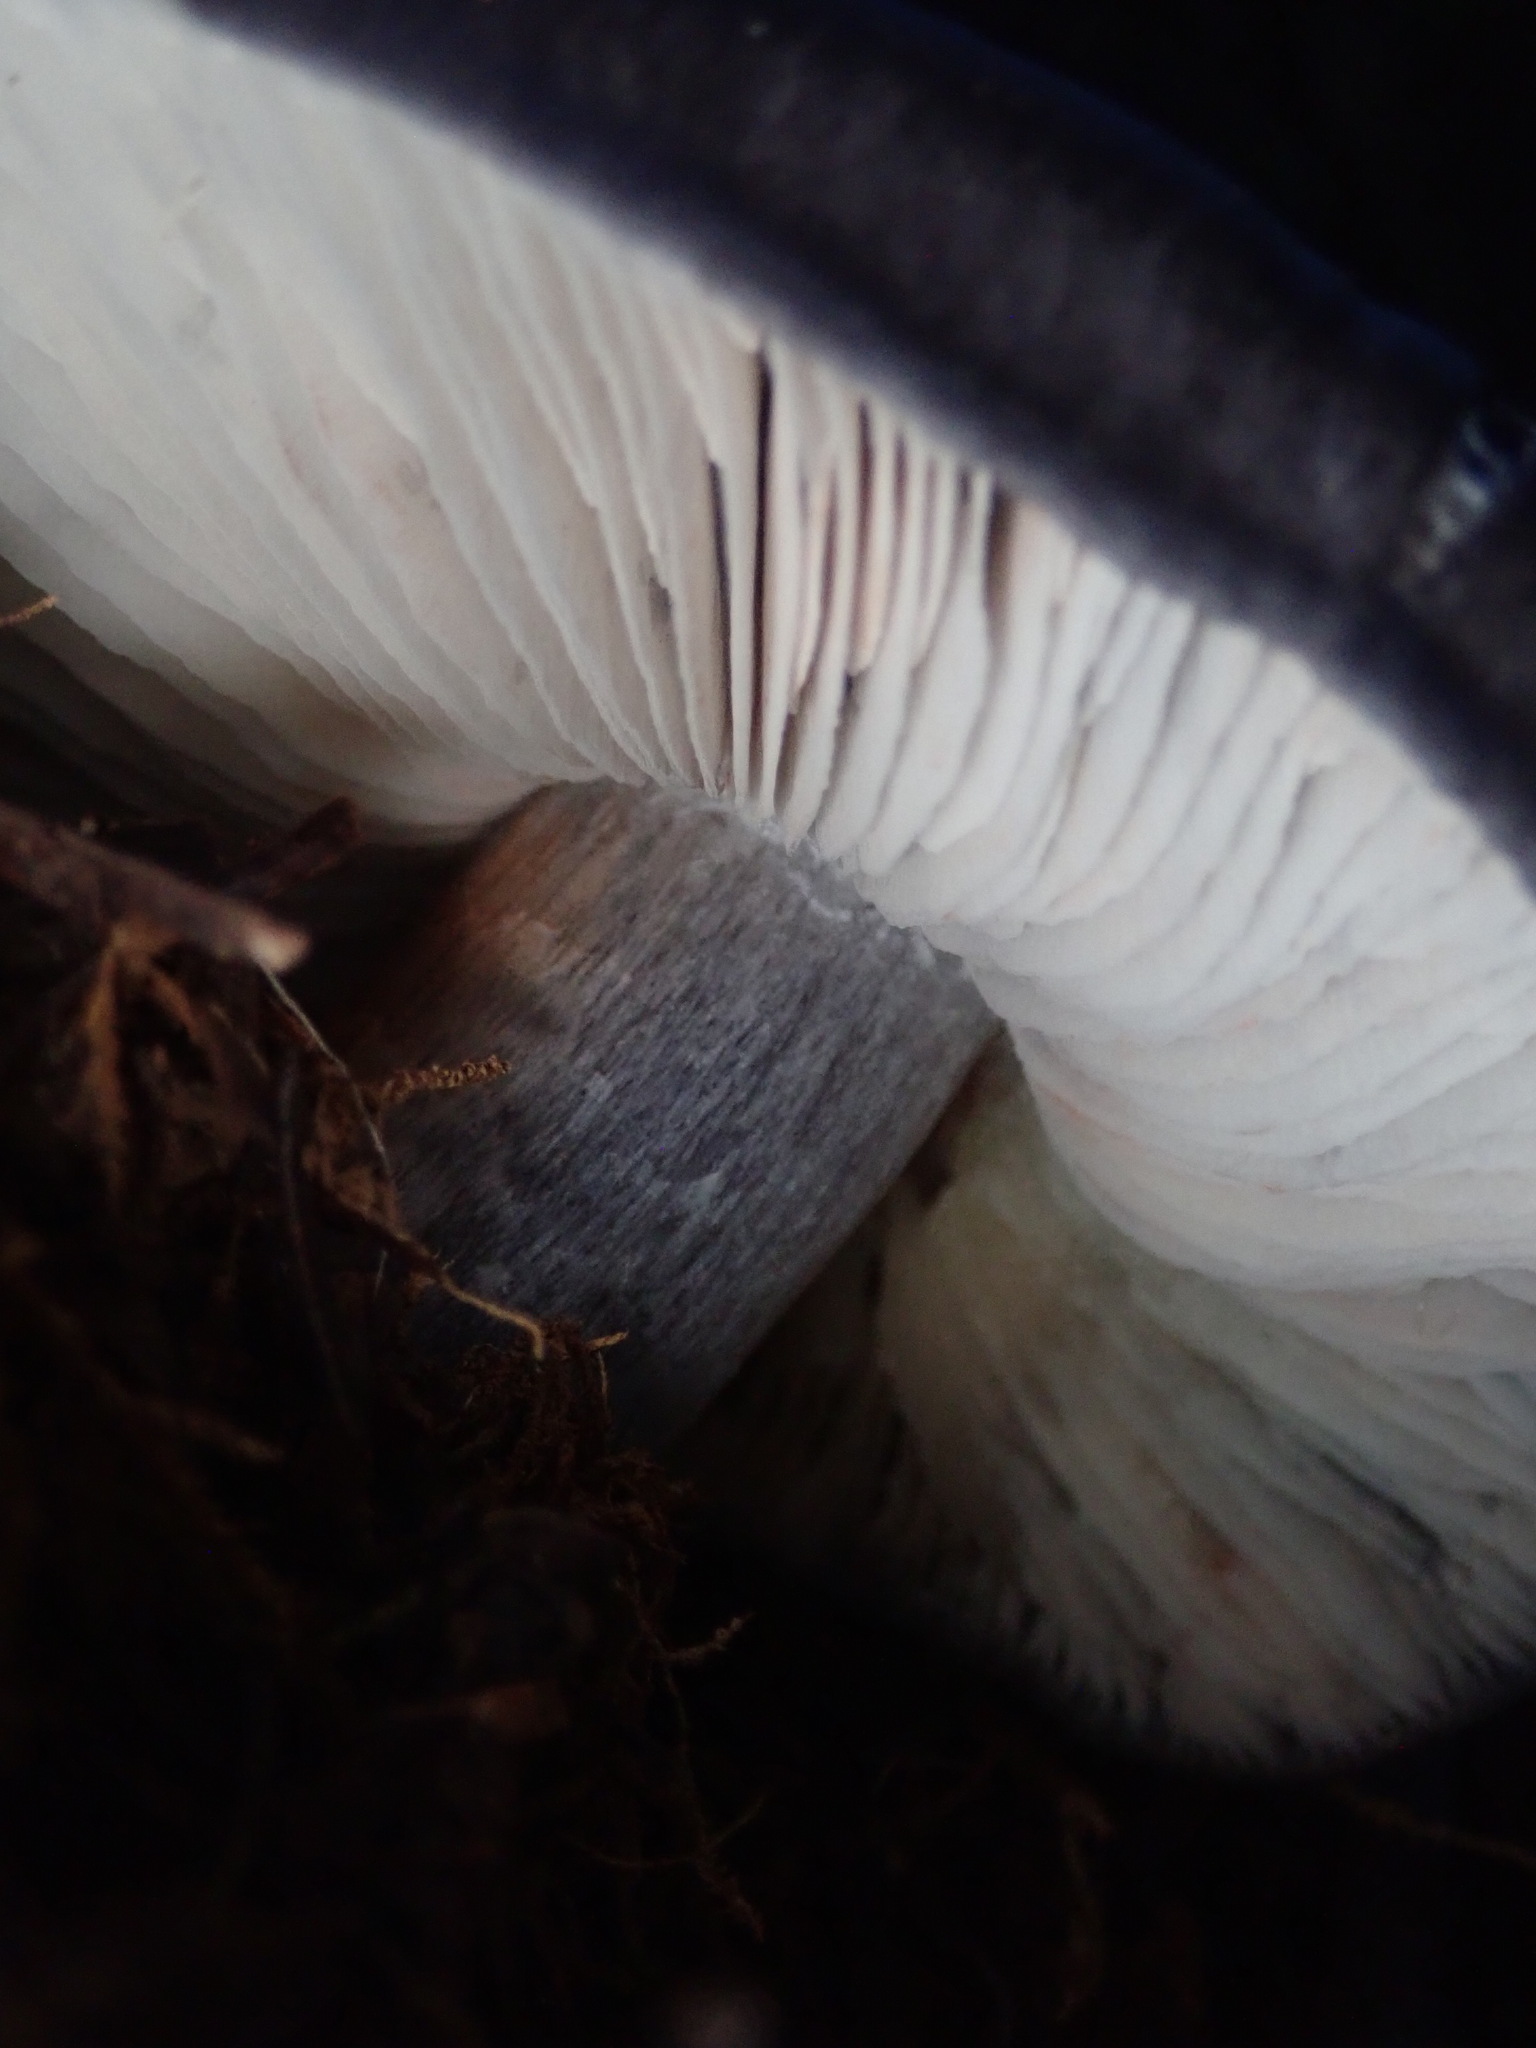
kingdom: Fungi
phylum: Basidiomycota
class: Agaricomycetes
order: Agaricales
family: Entolomataceae
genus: Entoloma
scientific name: Entoloma medianox
